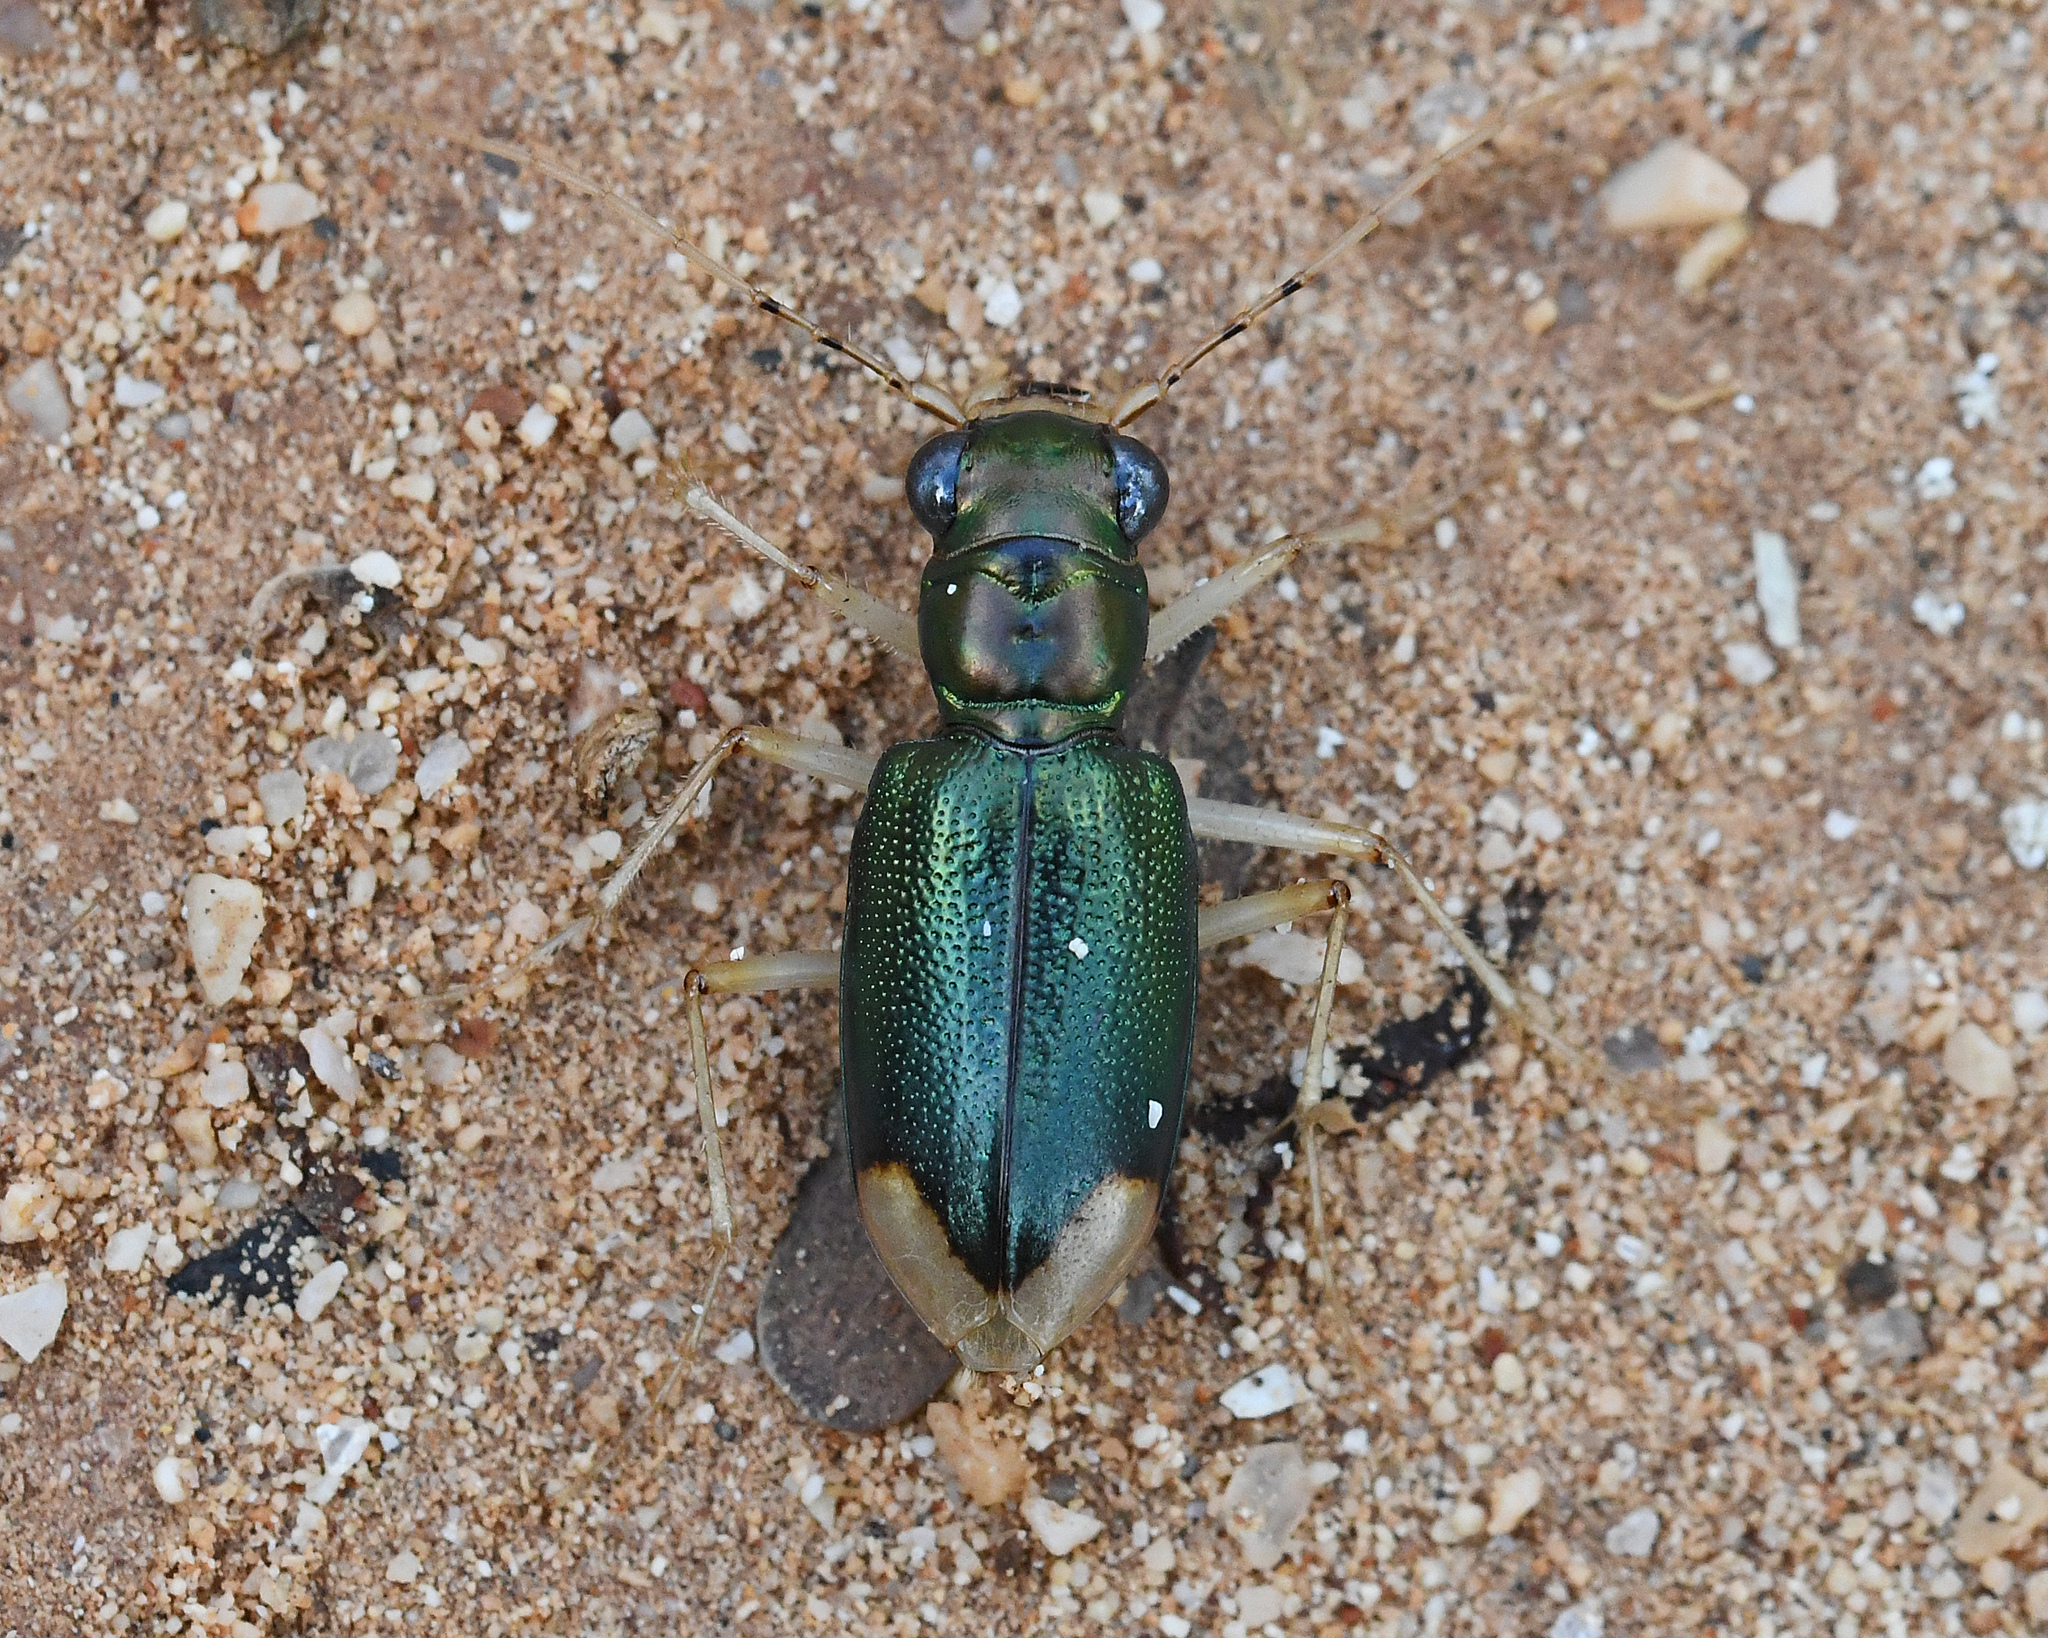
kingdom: Animalia
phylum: Arthropoda
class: Insecta
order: Coleoptera
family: Carabidae
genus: Tetracha
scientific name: Tetracha acutipennis
